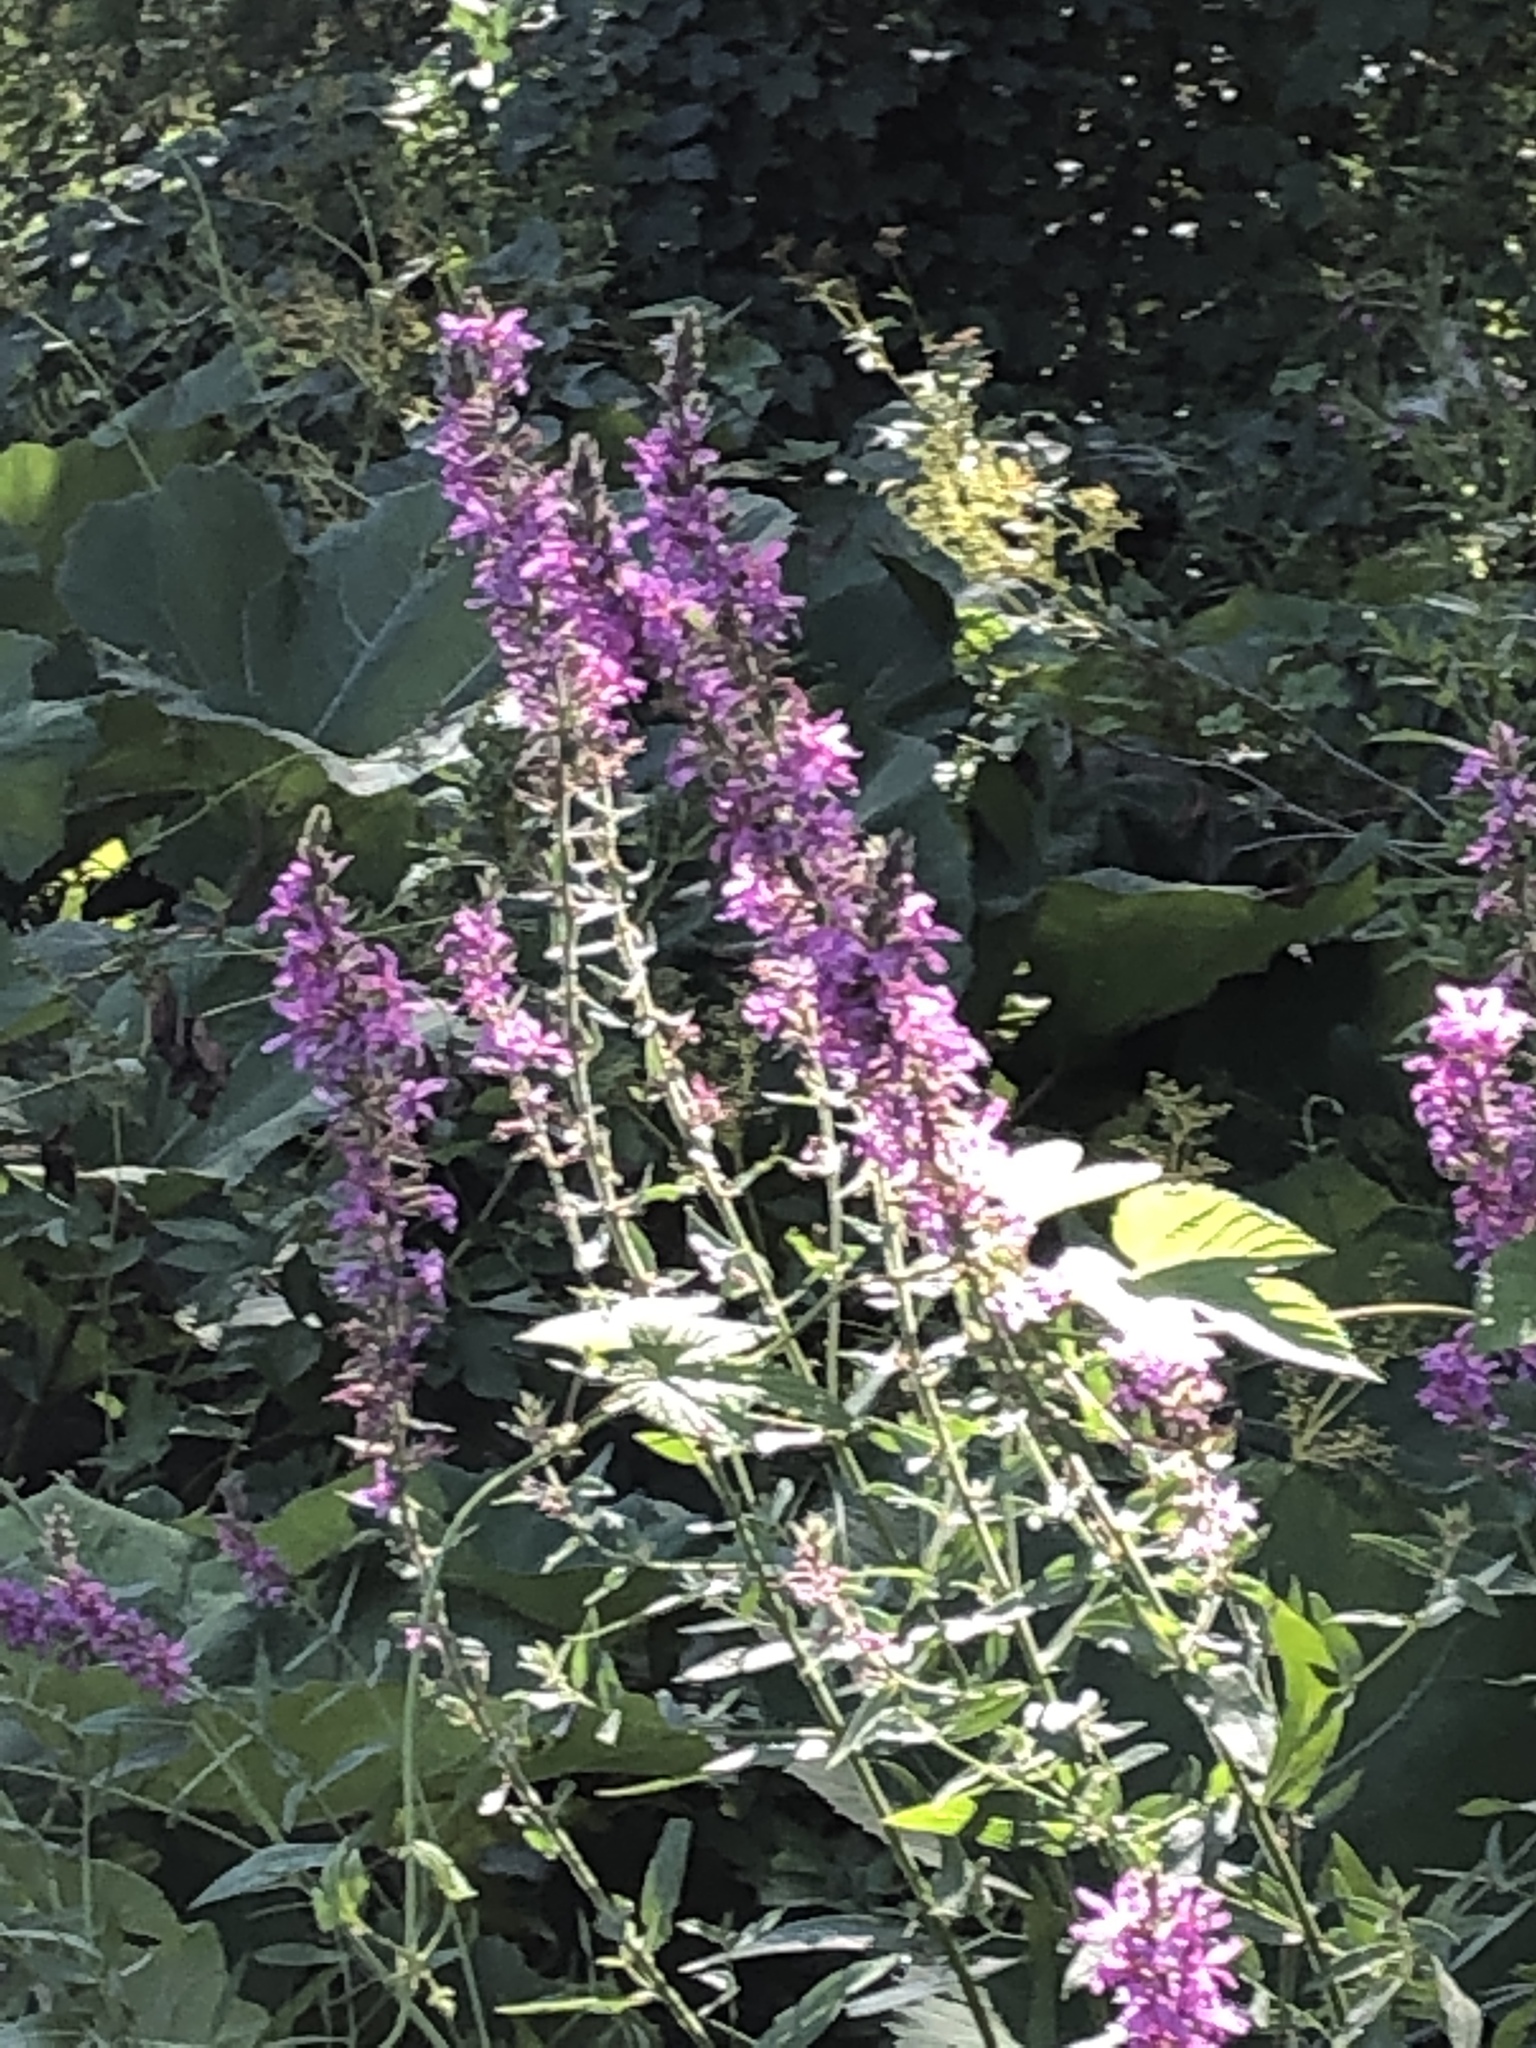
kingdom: Plantae
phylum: Tracheophyta
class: Magnoliopsida
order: Myrtales
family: Lythraceae
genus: Lythrum
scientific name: Lythrum salicaria
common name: Purple loosestrife
